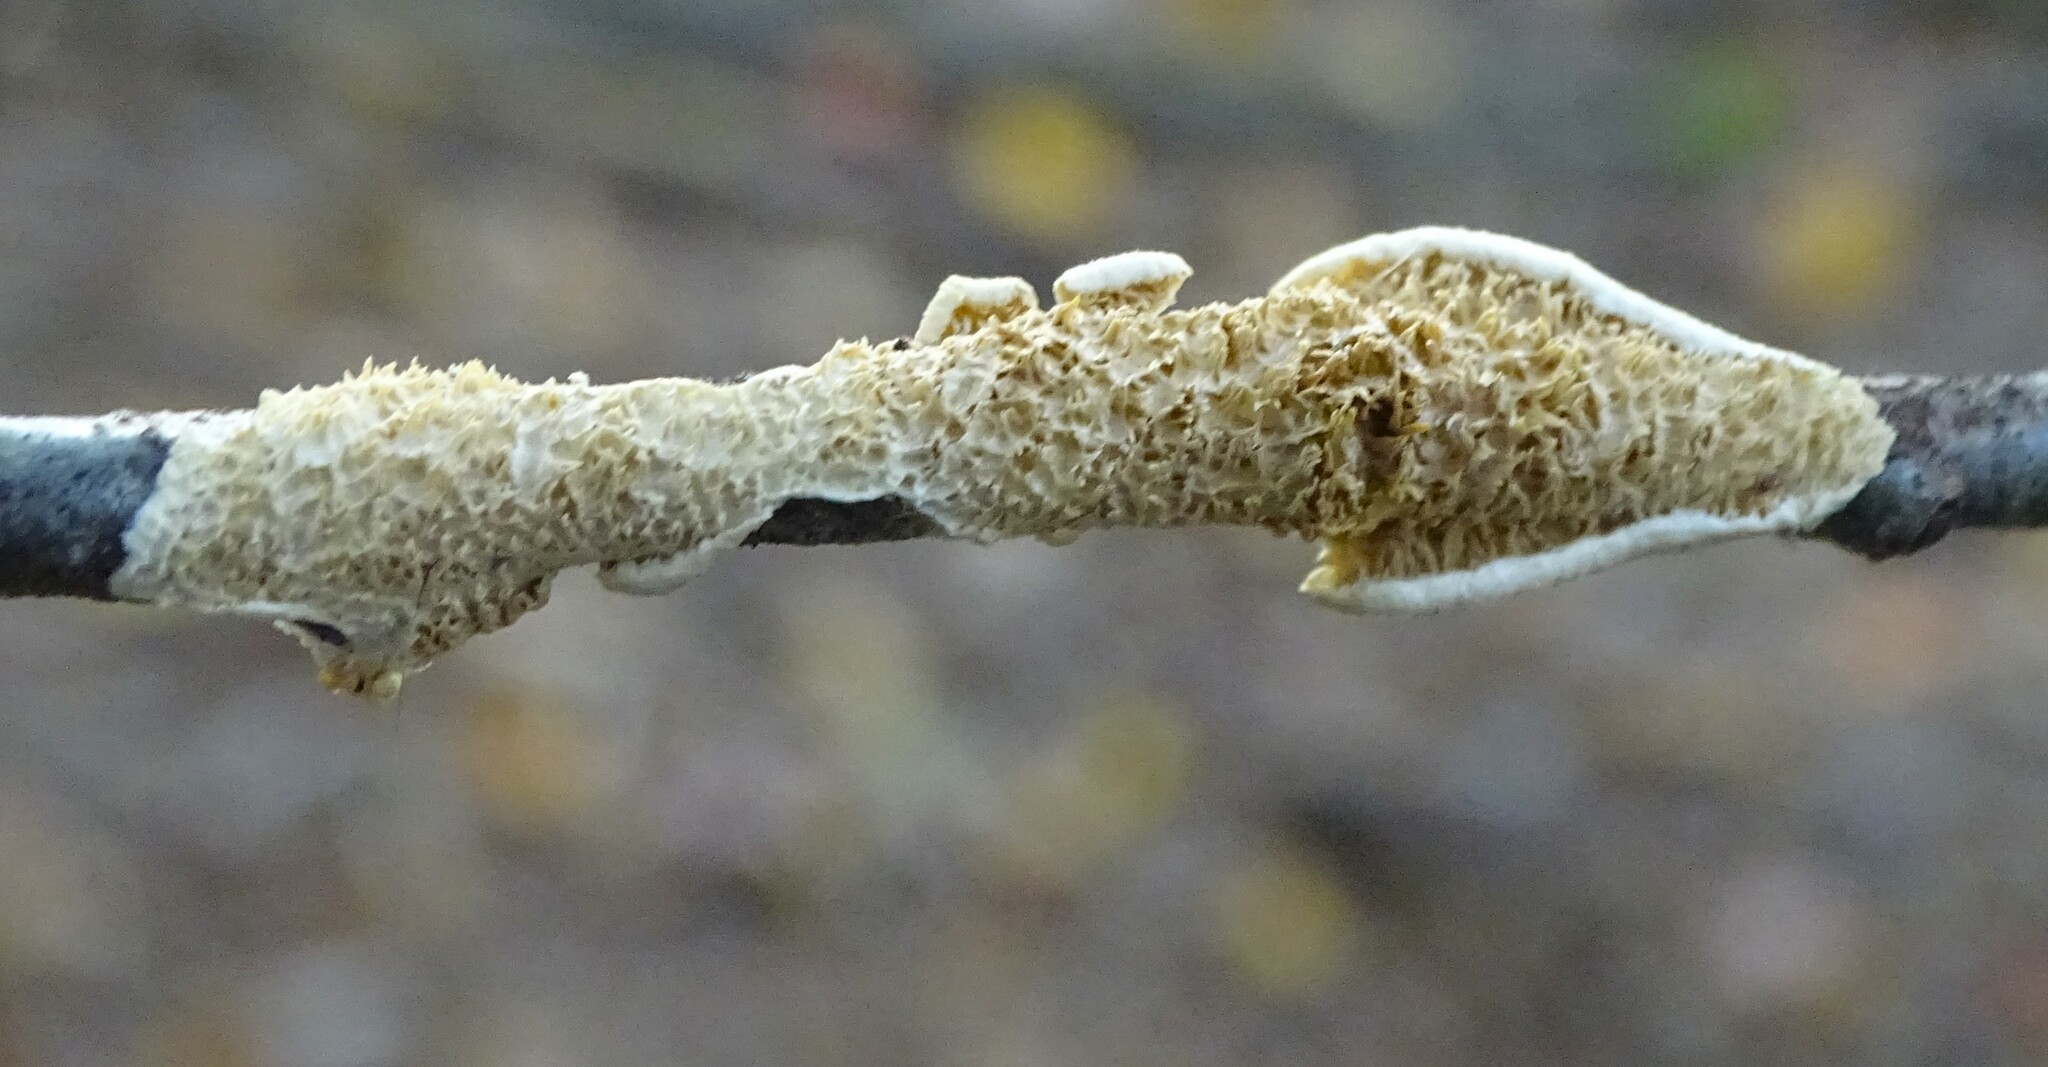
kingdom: Fungi
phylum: Basidiomycota
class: Agaricomycetes
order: Polyporales
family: Irpicaceae
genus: Irpex
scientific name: Irpex lacteus
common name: Milk-white toothed polypore
